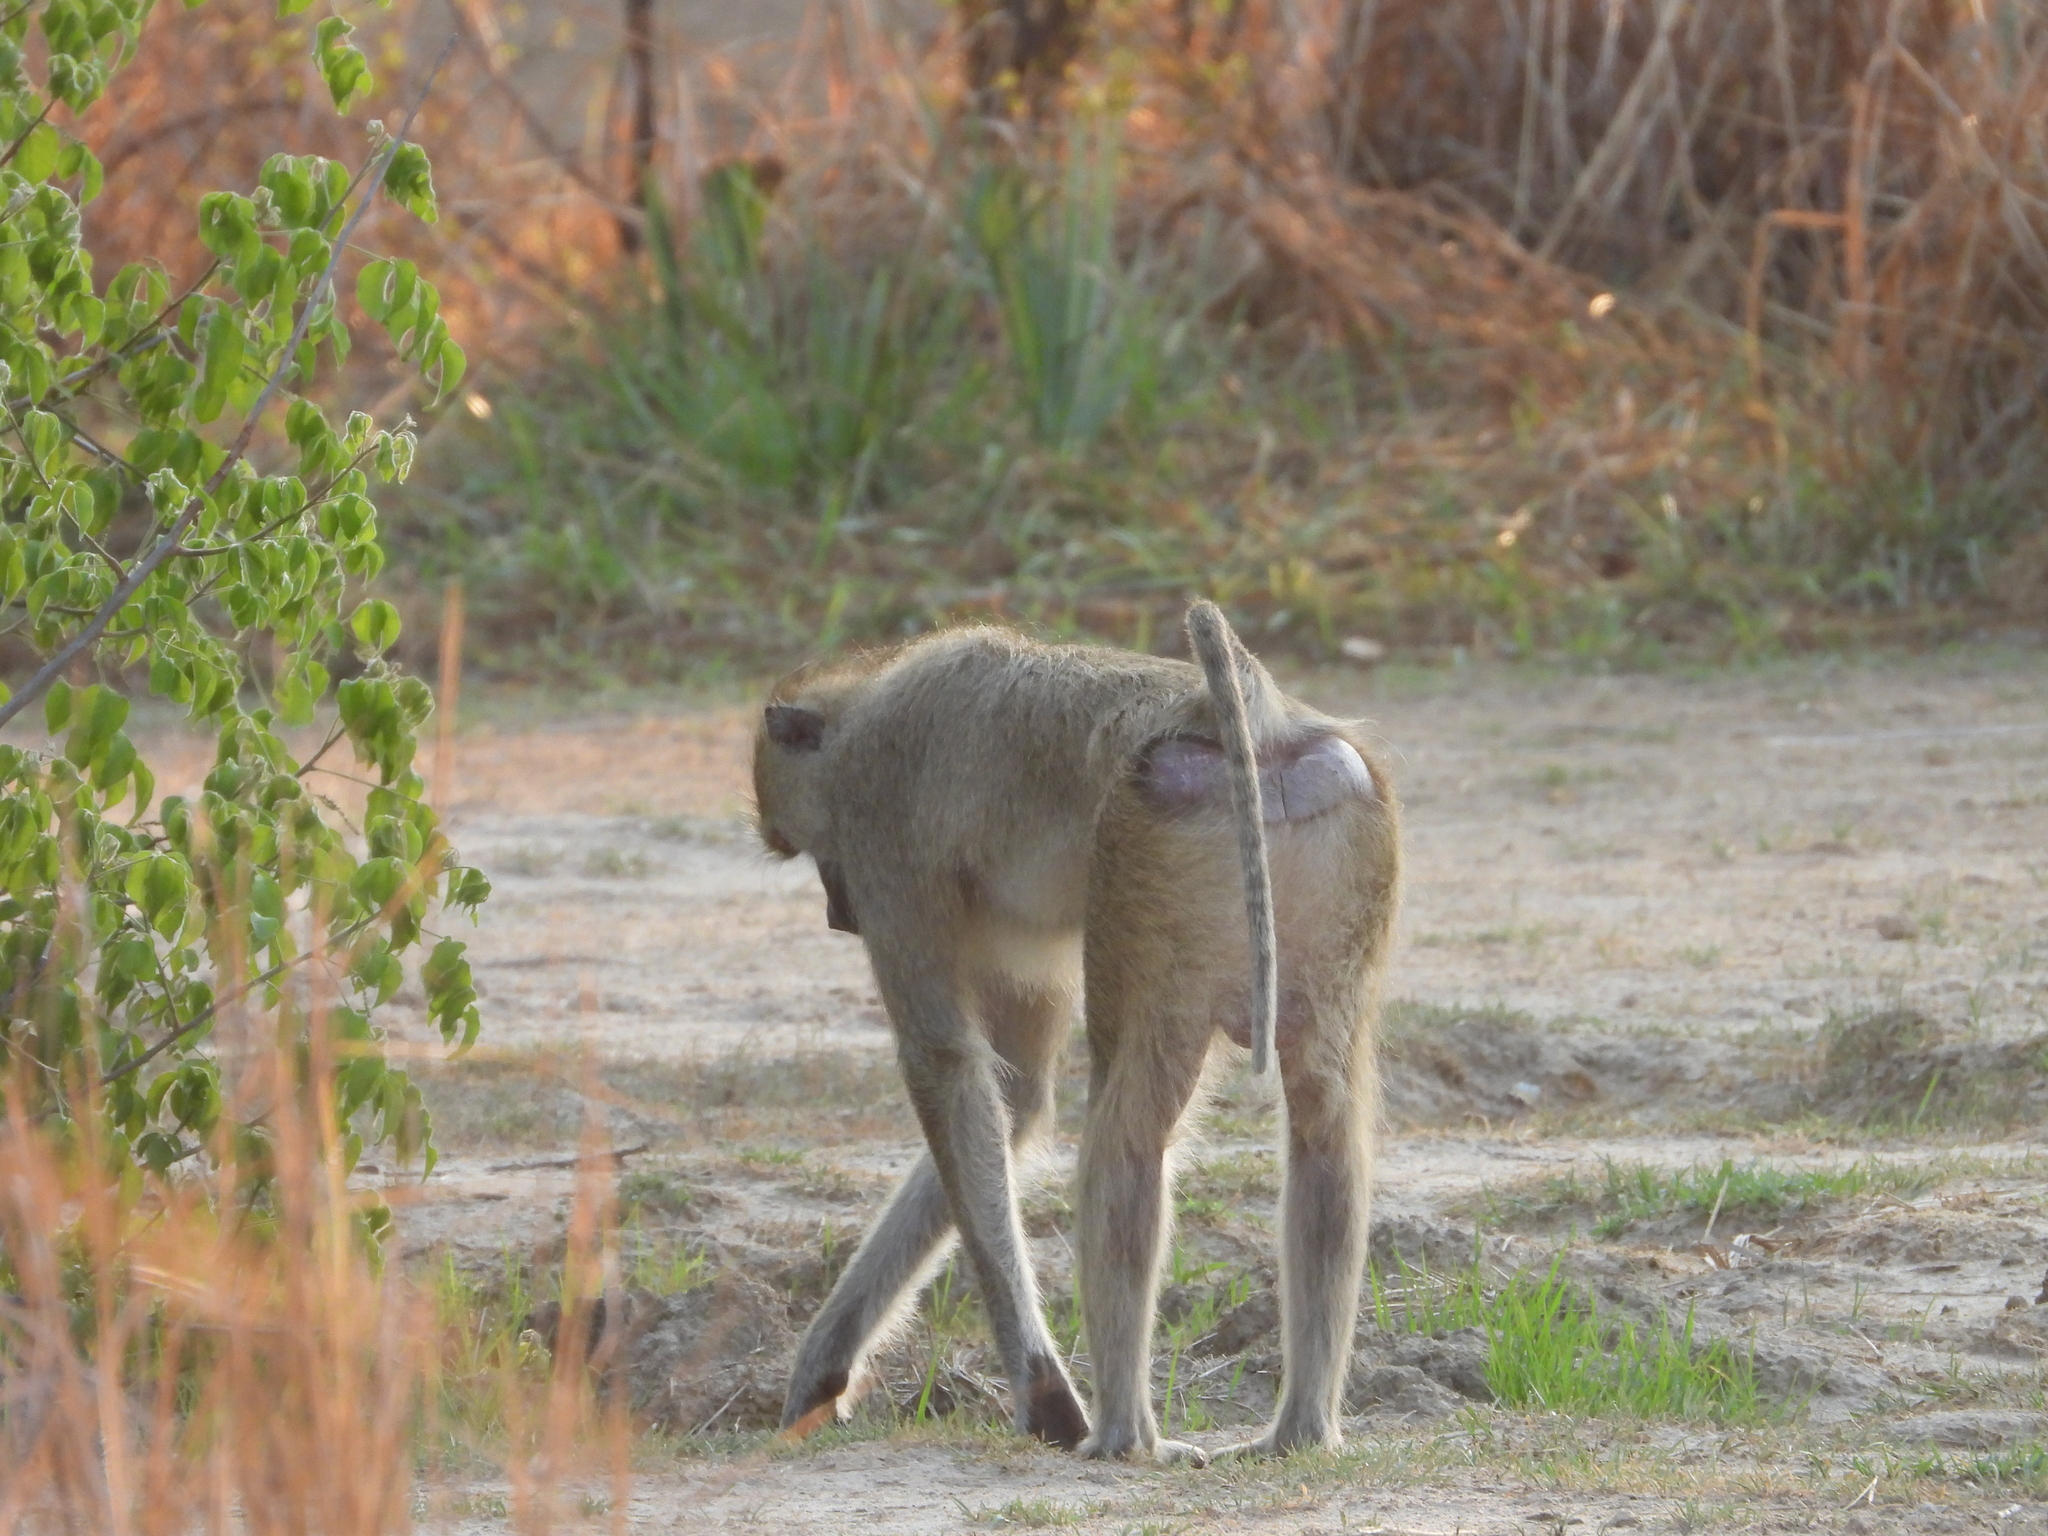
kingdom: Animalia
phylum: Chordata
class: Mammalia
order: Primates
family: Cercopithecidae
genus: Papio
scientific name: Papio kindae
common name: Kinda baboon
